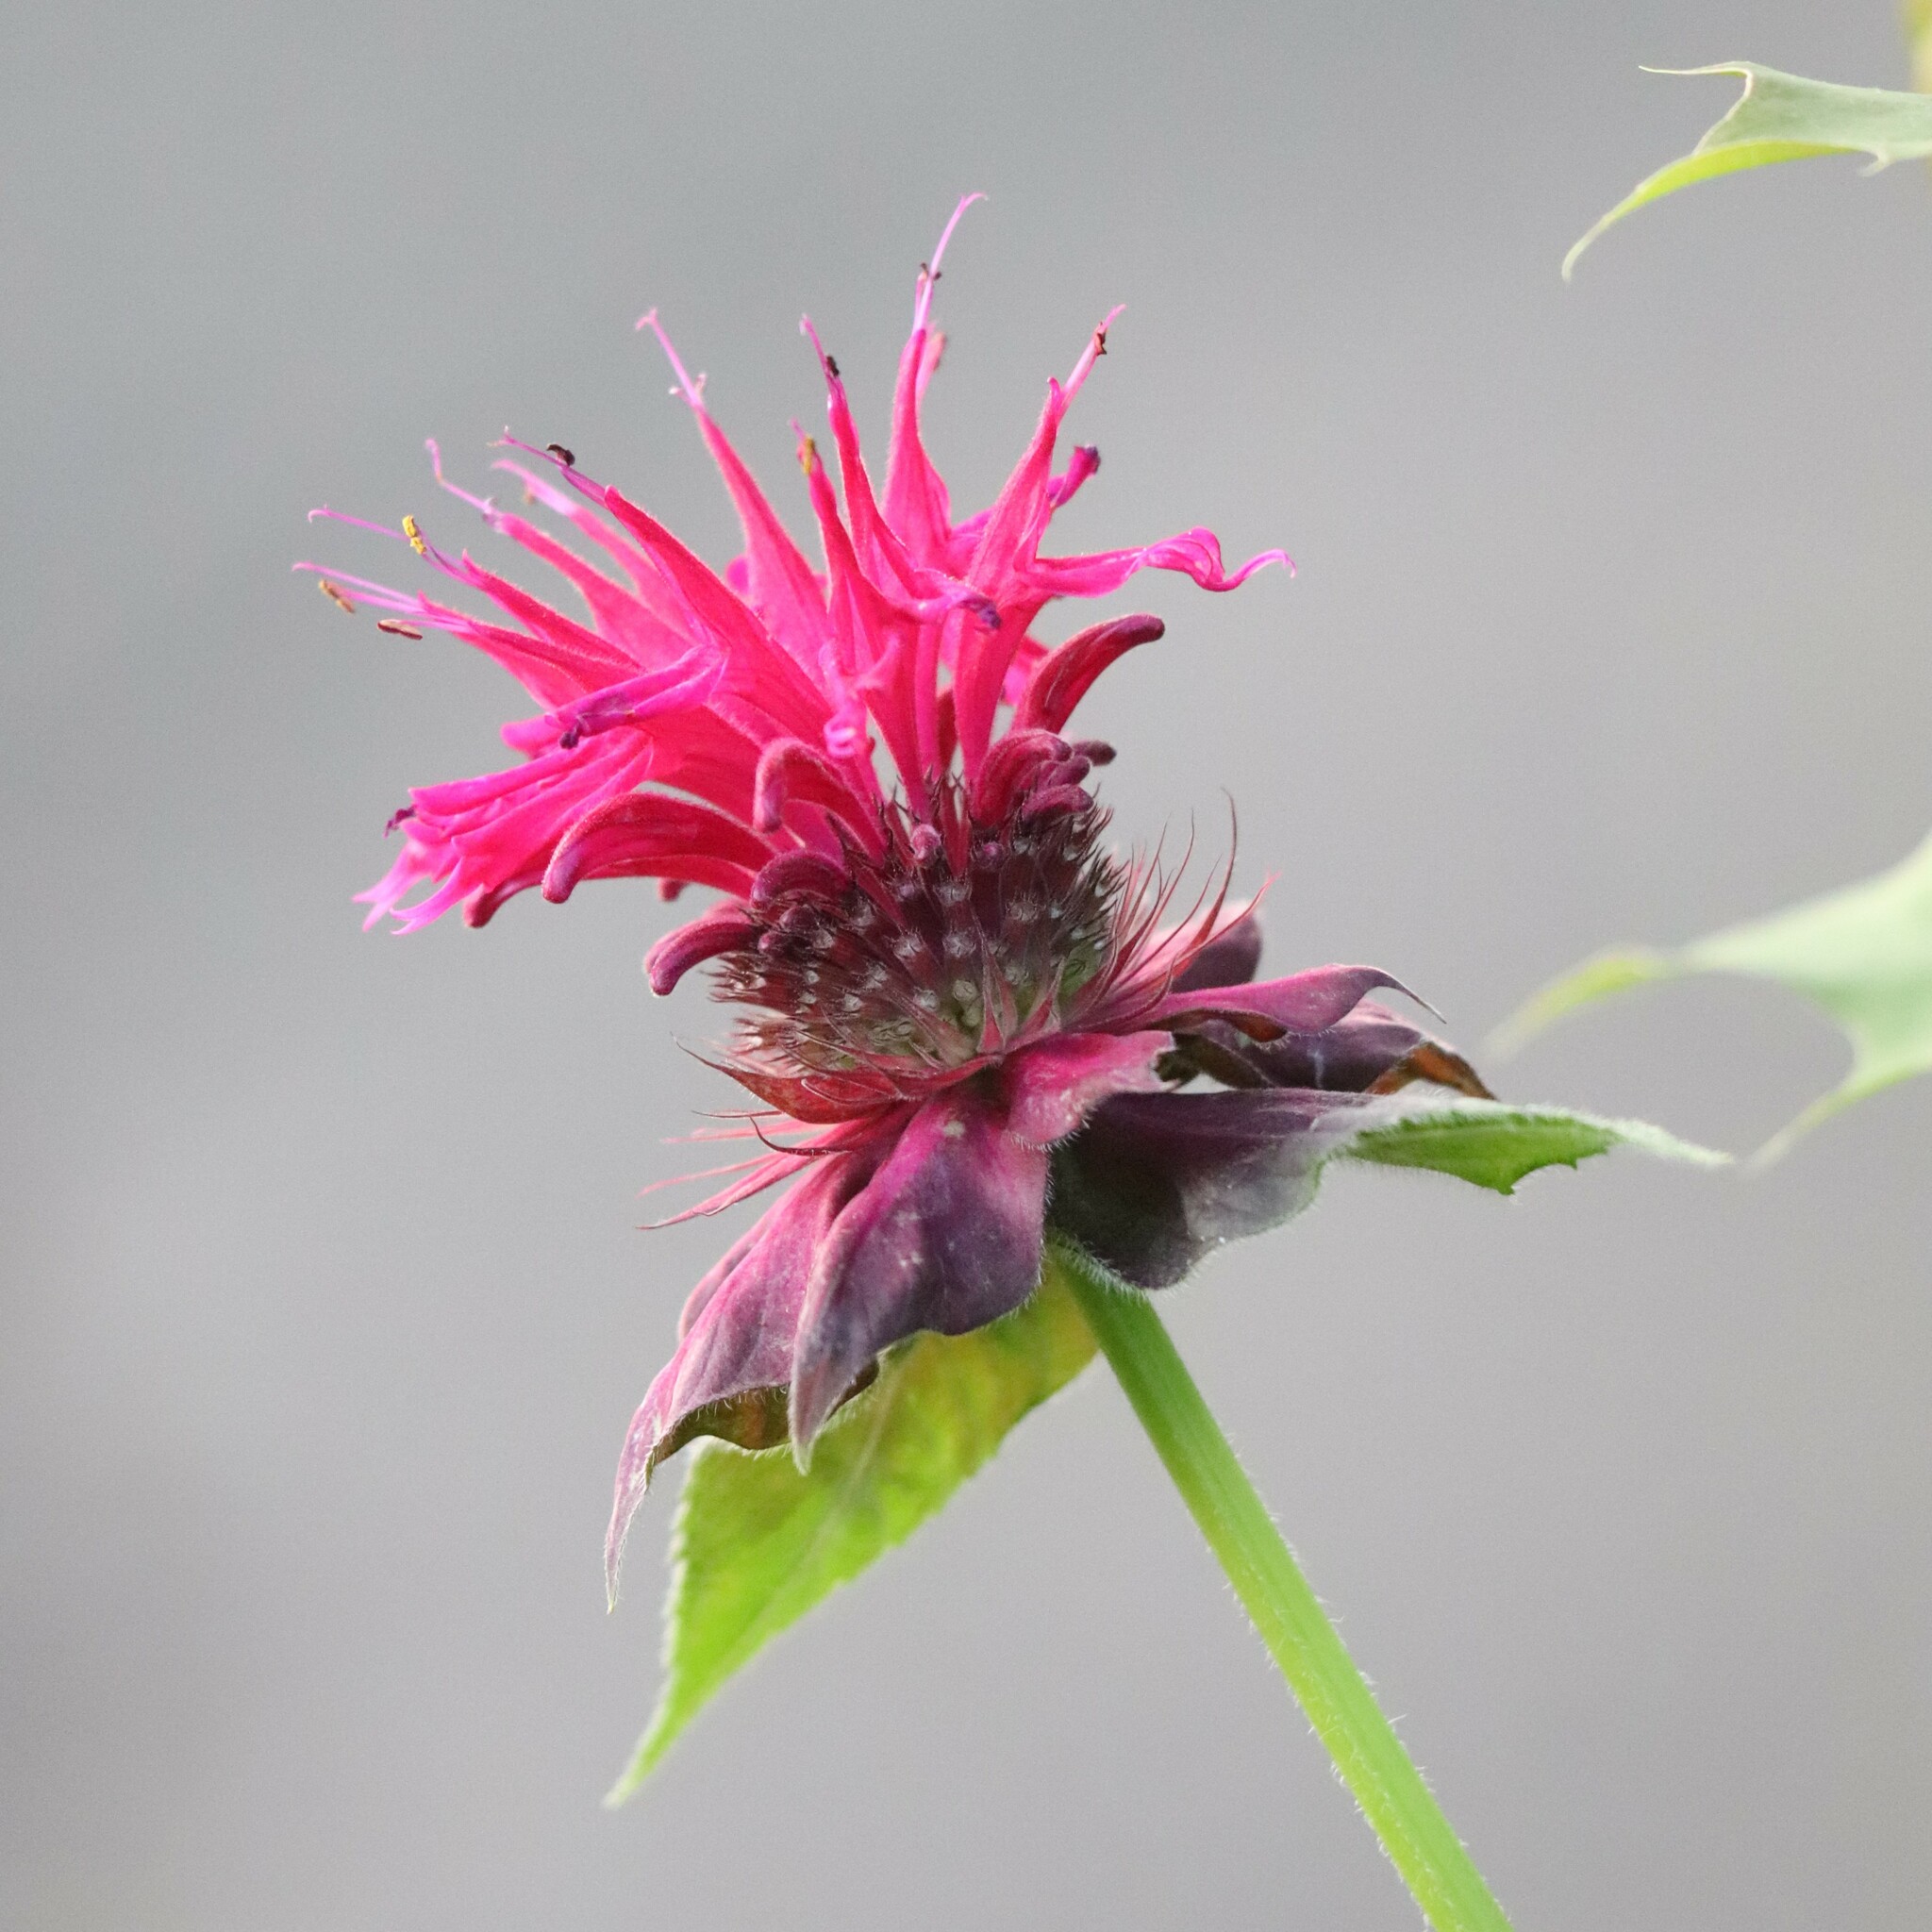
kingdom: Plantae
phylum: Tracheophyta
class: Magnoliopsida
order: Lamiales
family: Lamiaceae
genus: Monarda
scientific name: Monarda didyma
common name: Beebalm
